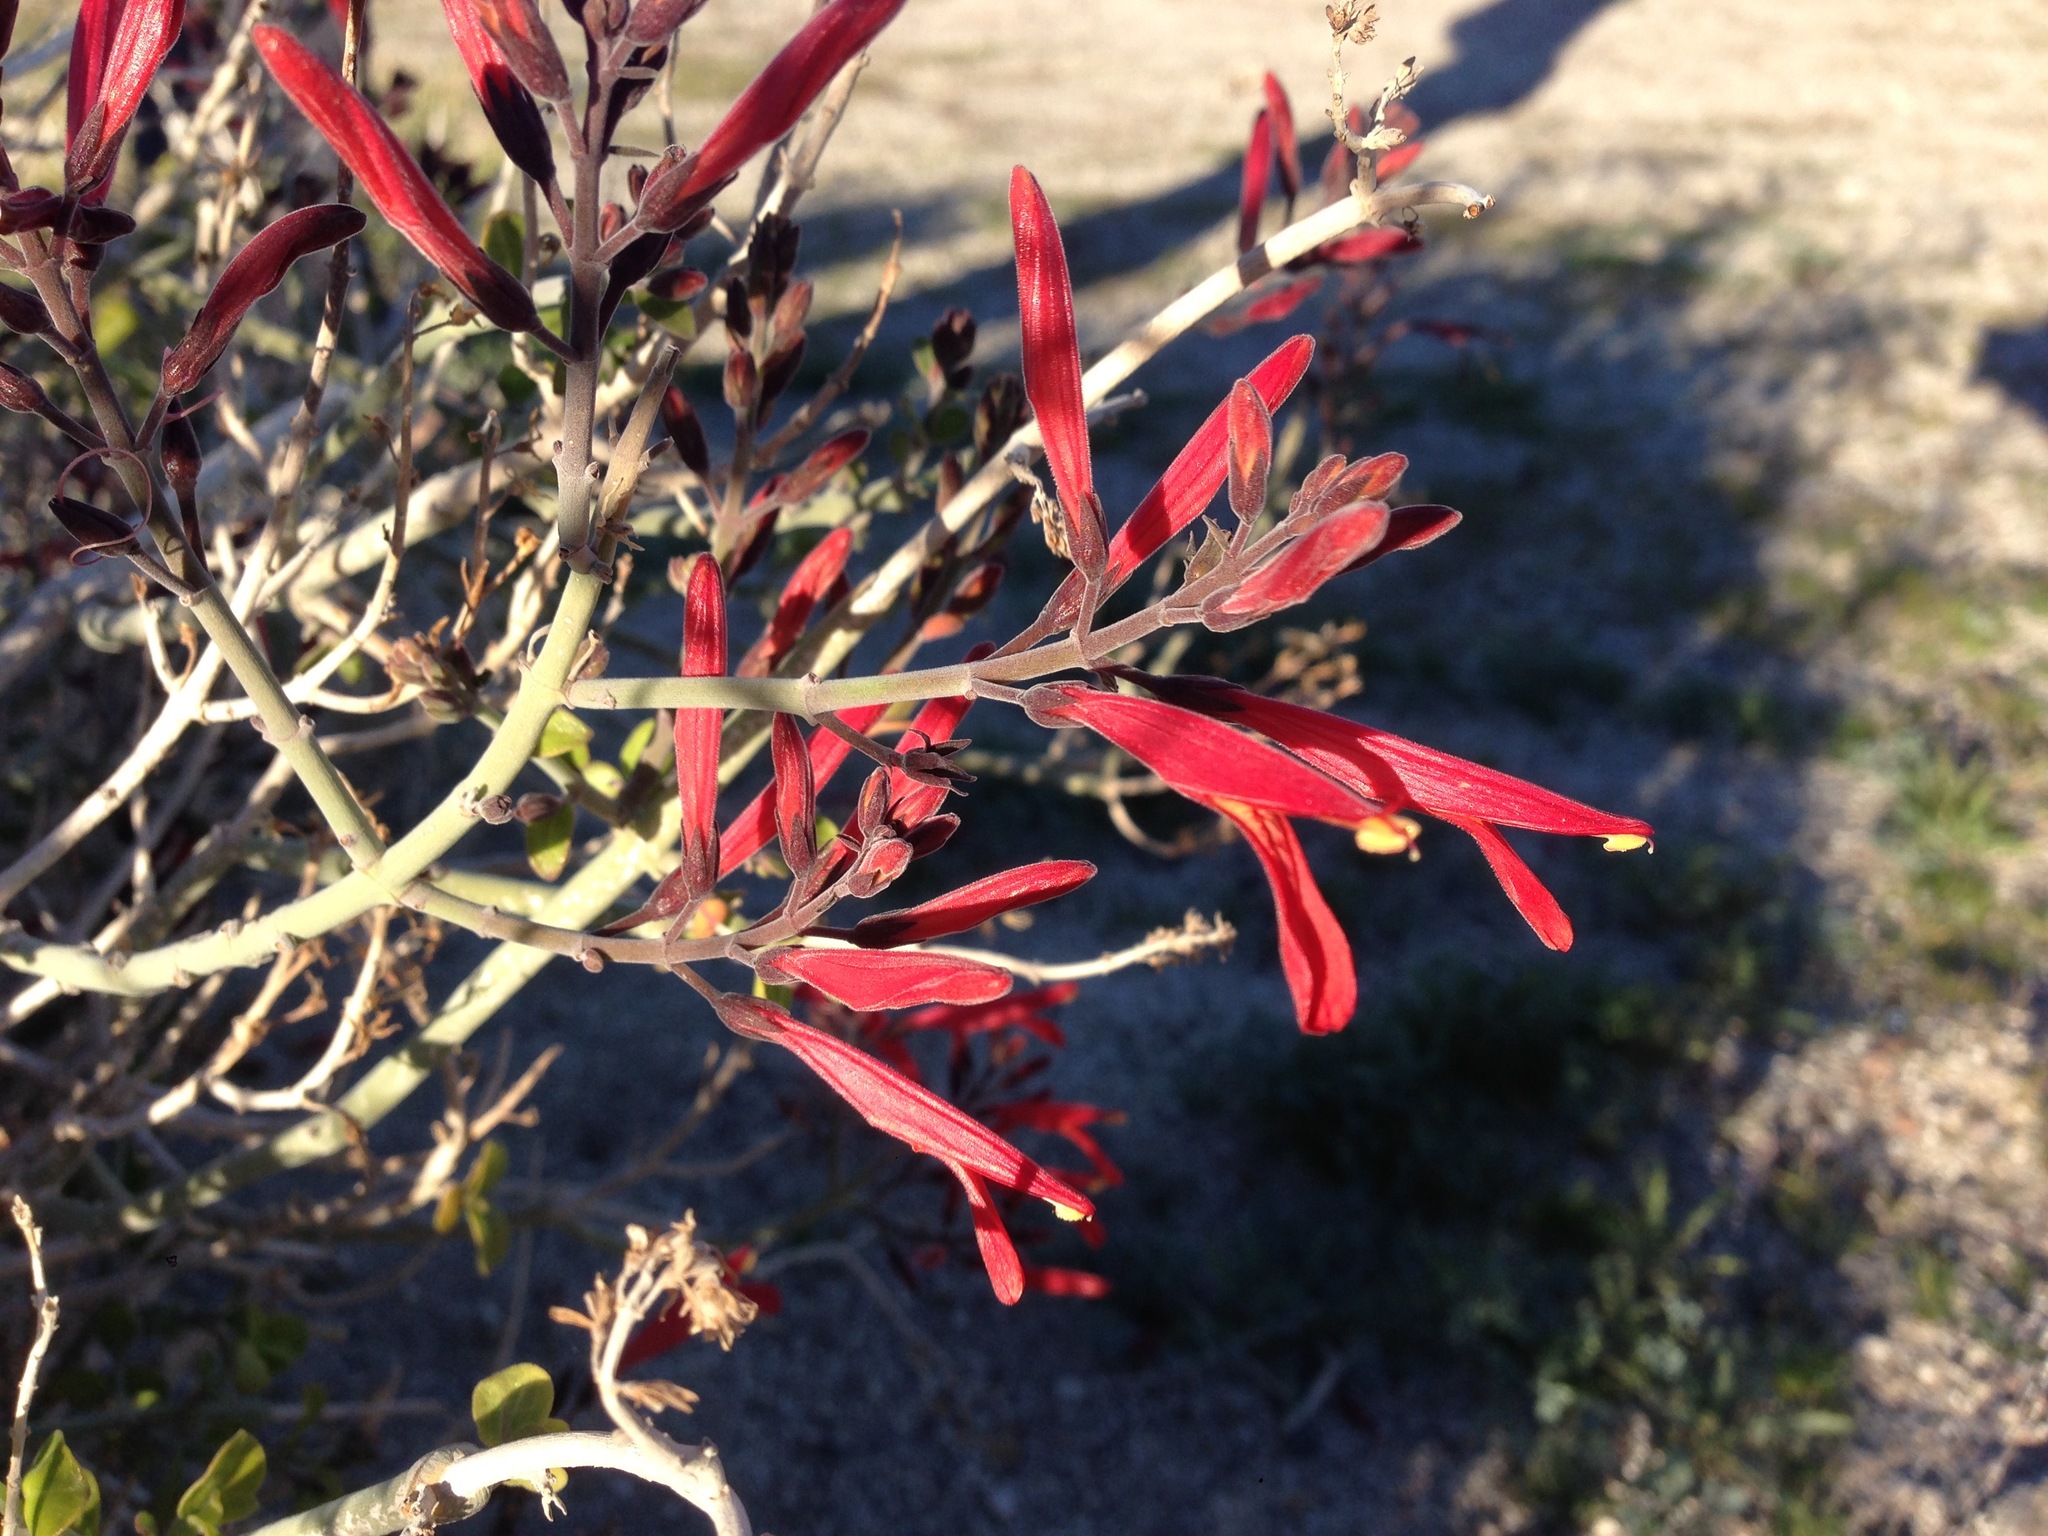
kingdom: Plantae
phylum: Tracheophyta
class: Magnoliopsida
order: Lamiales
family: Acanthaceae
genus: Justicia
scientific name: Justicia californica
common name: Chuparosa-honeysuckle
